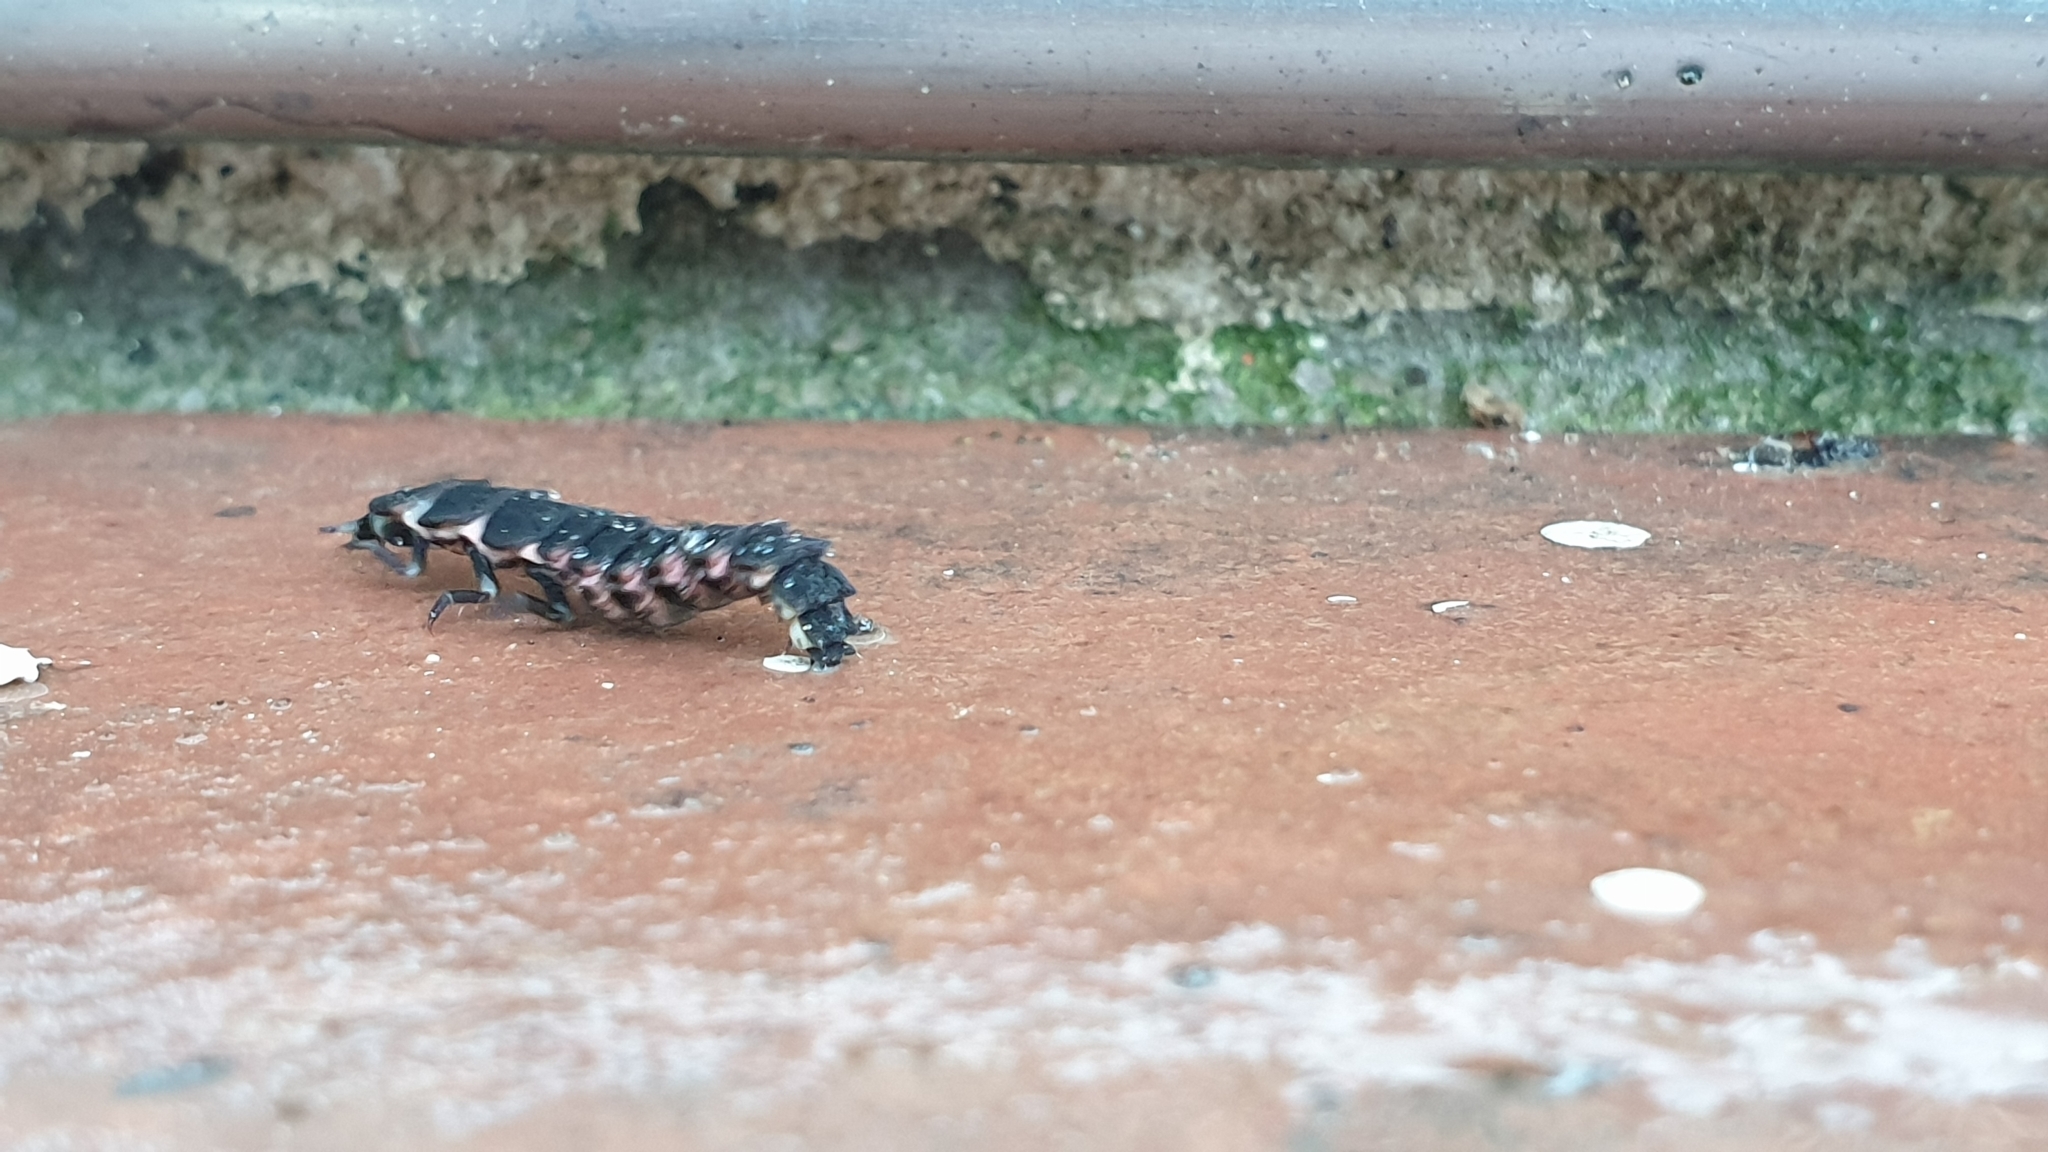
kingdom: Animalia
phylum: Arthropoda
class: Insecta
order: Coleoptera
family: Lampyridae
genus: Nyctophila
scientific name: Nyctophila reichii
